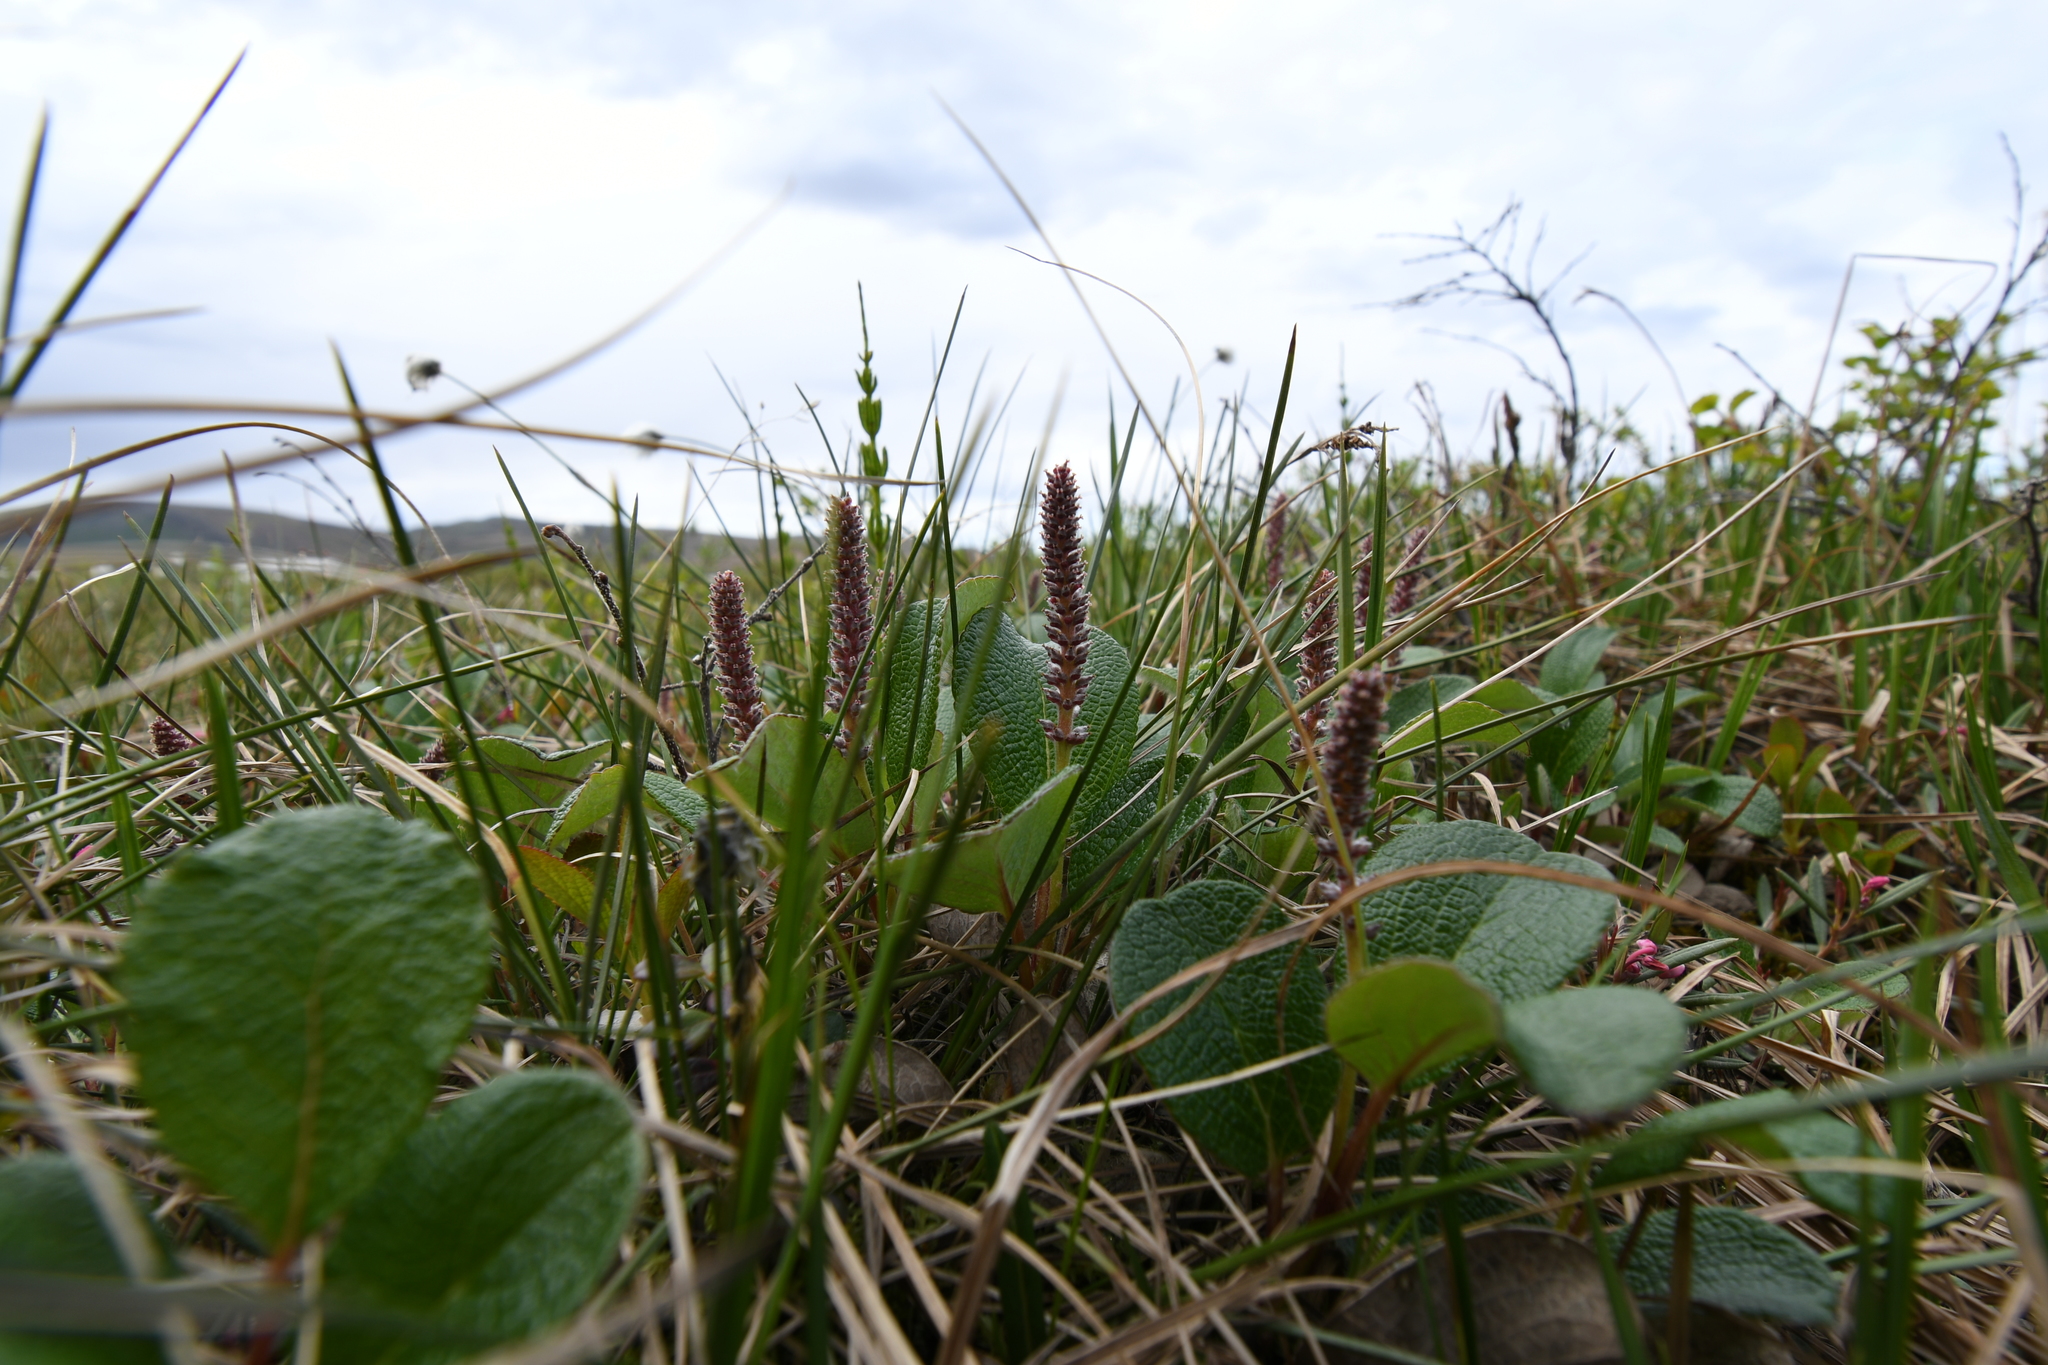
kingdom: Plantae
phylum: Tracheophyta
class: Magnoliopsida
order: Malpighiales
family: Salicaceae
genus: Salix
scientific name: Salix reticulata
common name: Net-leaved willow
